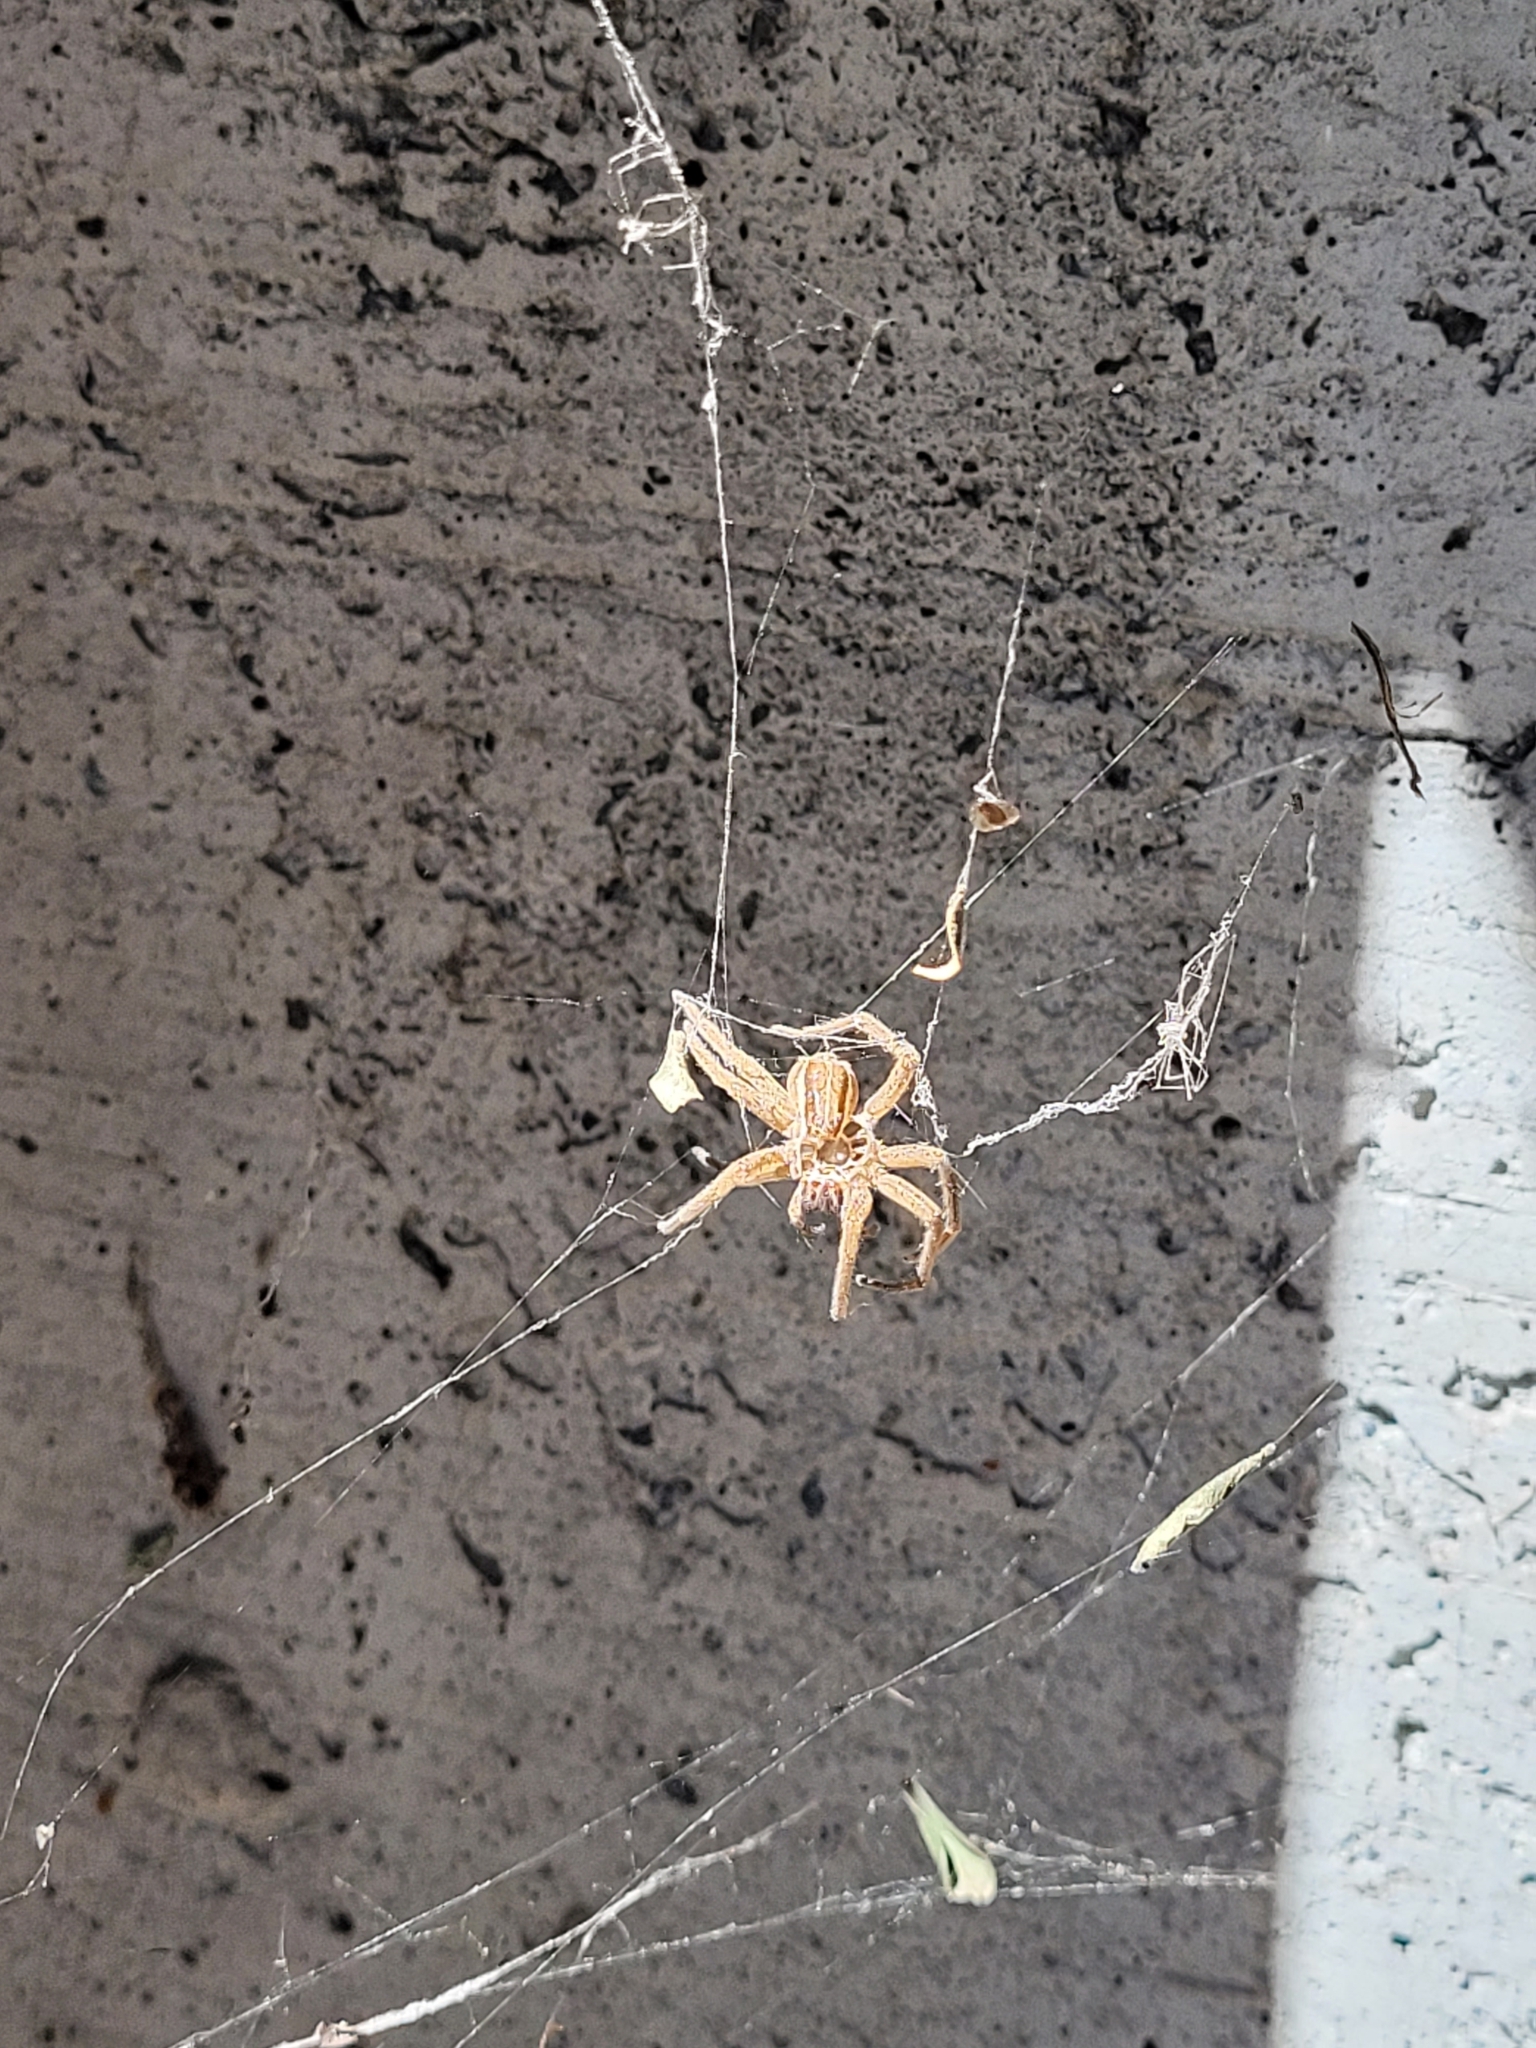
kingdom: Animalia
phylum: Arthropoda
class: Arachnida
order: Araneae
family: Pisauridae
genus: Dolomedes
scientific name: Dolomedes minor
